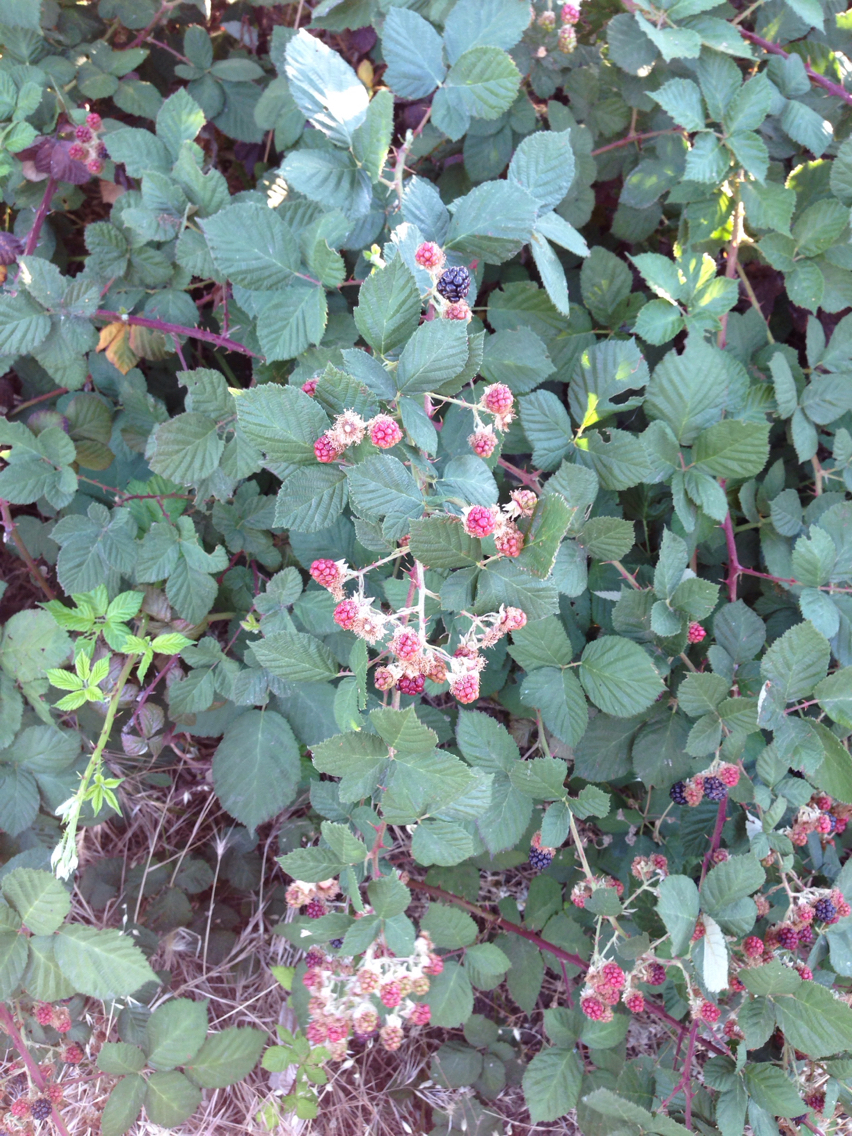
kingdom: Plantae
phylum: Tracheophyta
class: Magnoliopsida
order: Rosales
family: Rosaceae
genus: Rubus
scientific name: Rubus armeniacus
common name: Himalayan blackberry
